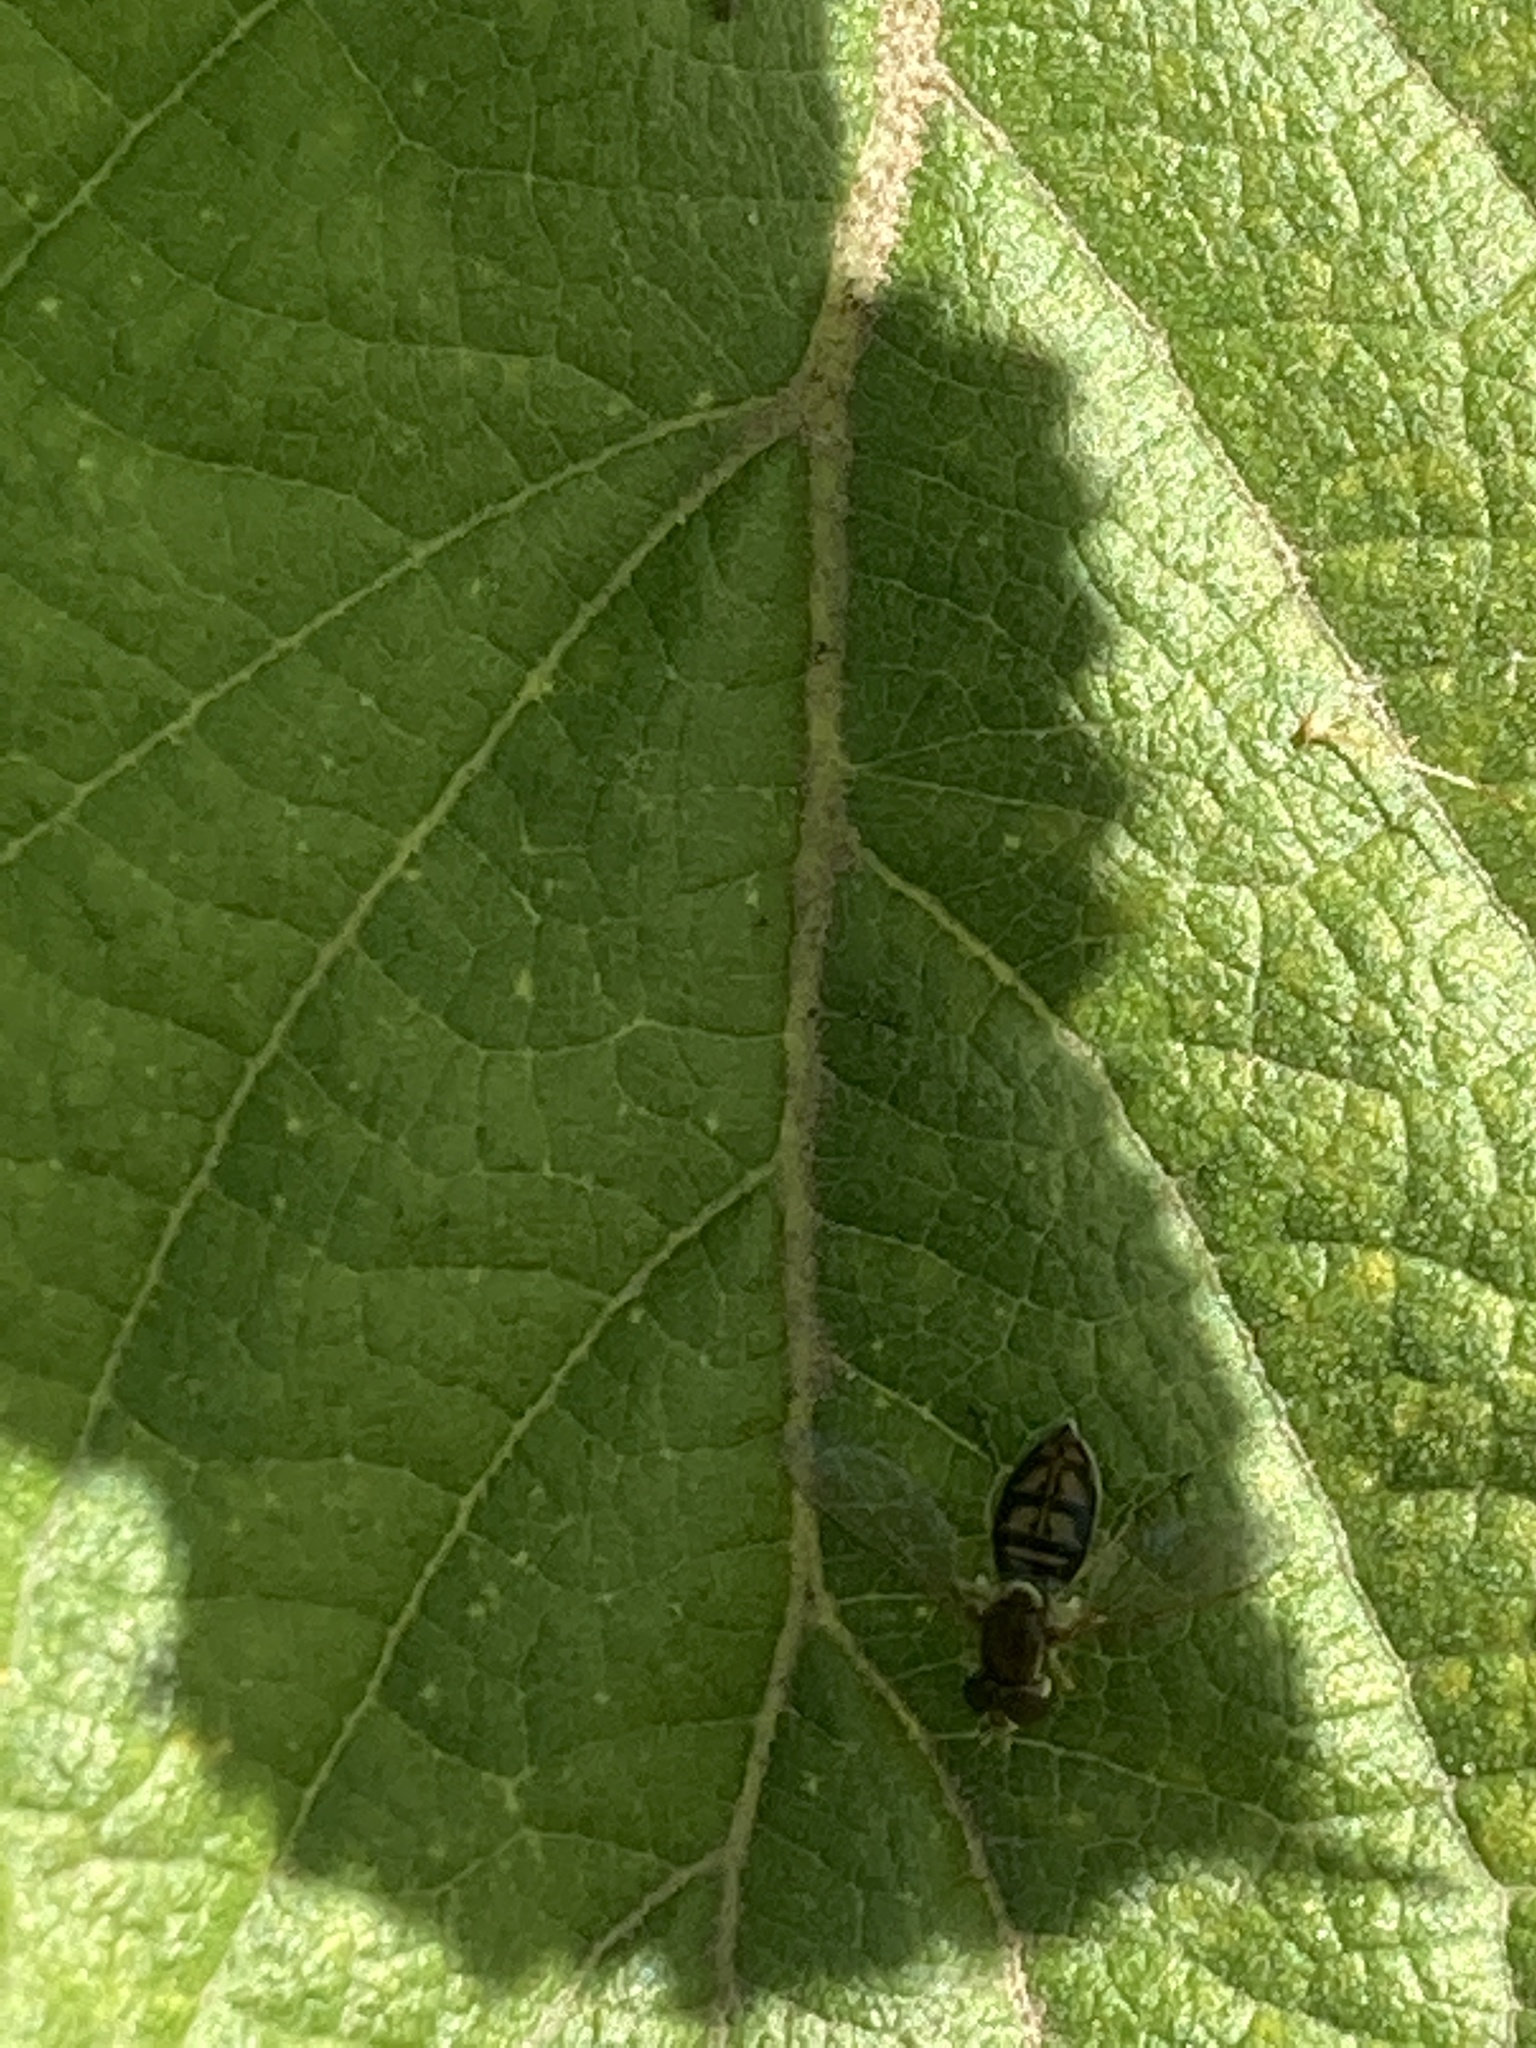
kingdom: Animalia
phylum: Arthropoda
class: Insecta
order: Diptera
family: Syrphidae
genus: Toxomerus
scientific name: Toxomerus marginatus
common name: Syrphid fly
